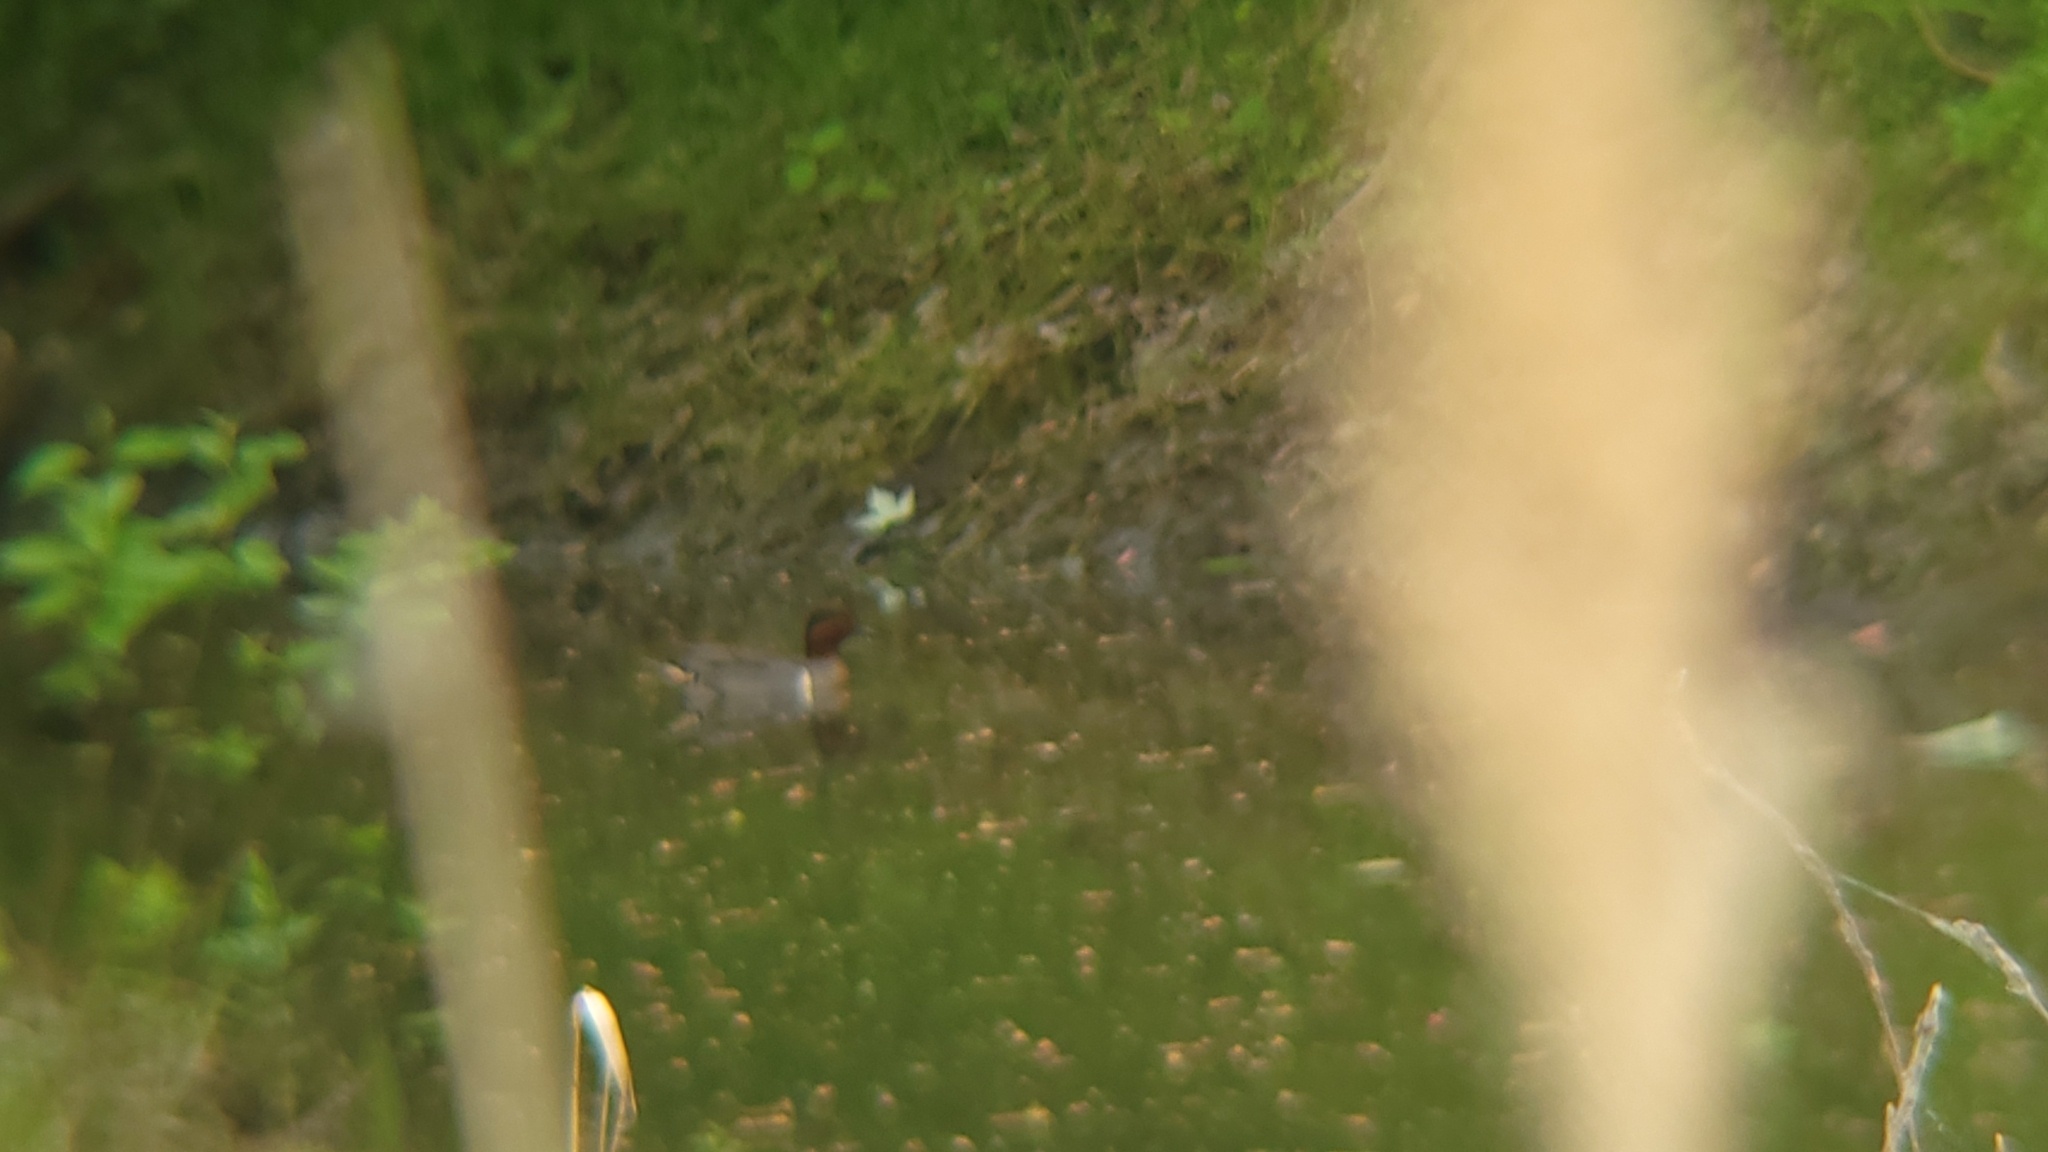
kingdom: Animalia
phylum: Chordata
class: Aves
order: Anseriformes
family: Anatidae
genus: Anas
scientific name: Anas crecca
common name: Eurasian teal
